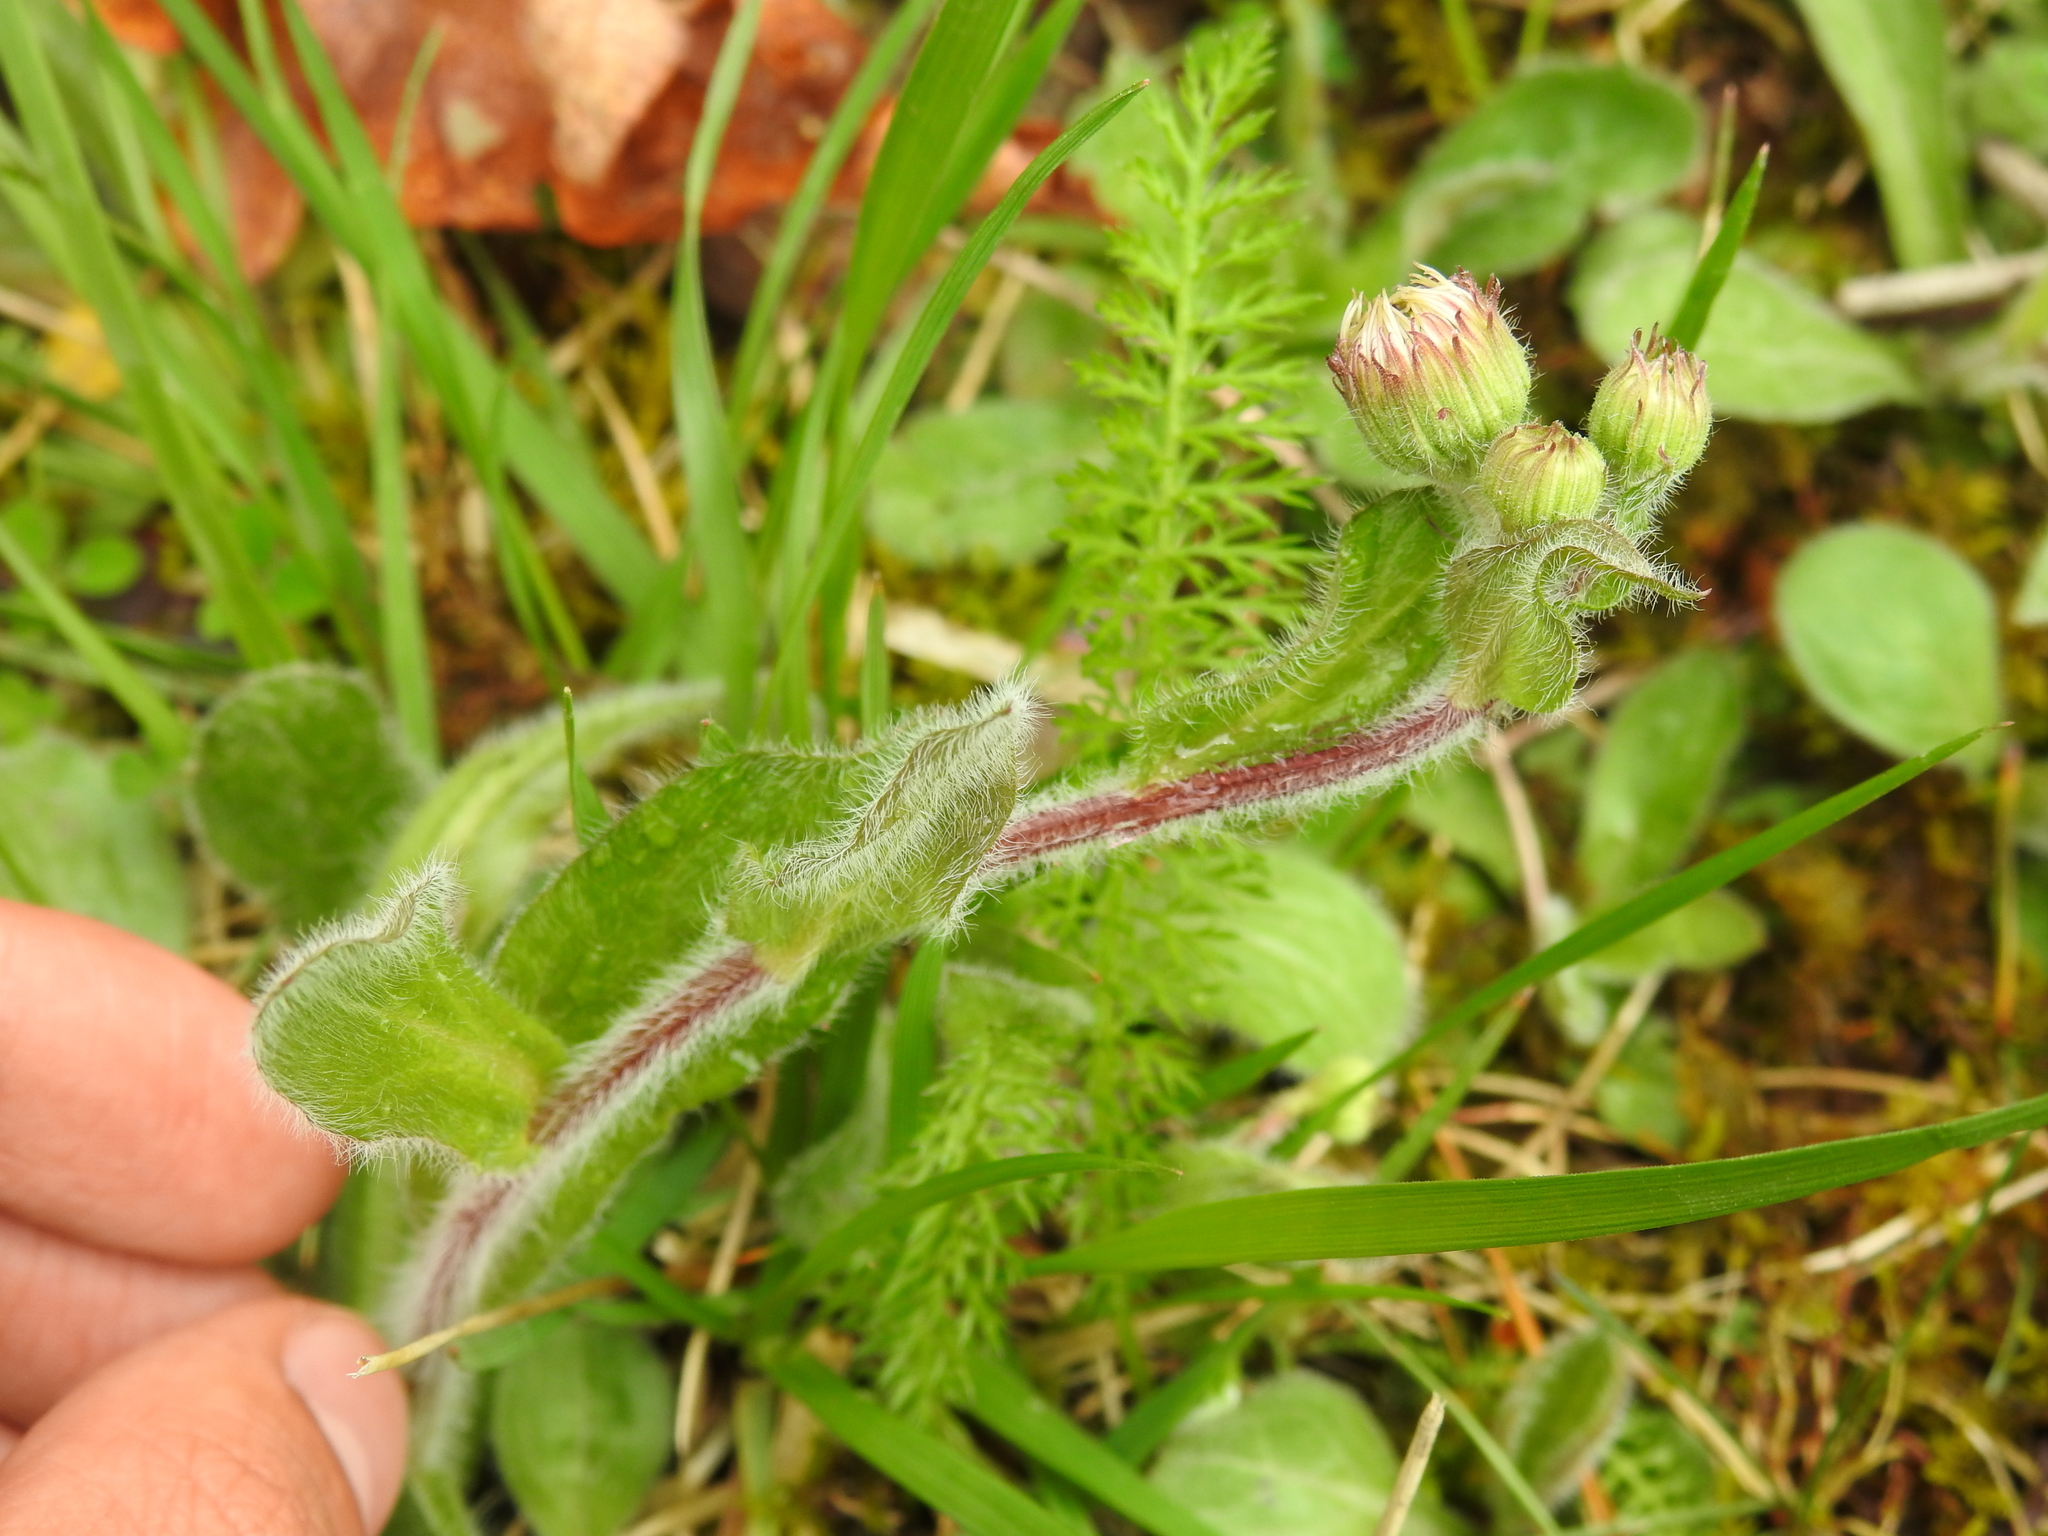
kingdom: Plantae
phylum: Tracheophyta
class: Magnoliopsida
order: Asterales
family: Asteraceae
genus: Erigeron
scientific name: Erigeron pulchellus
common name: Hairy fleabane
